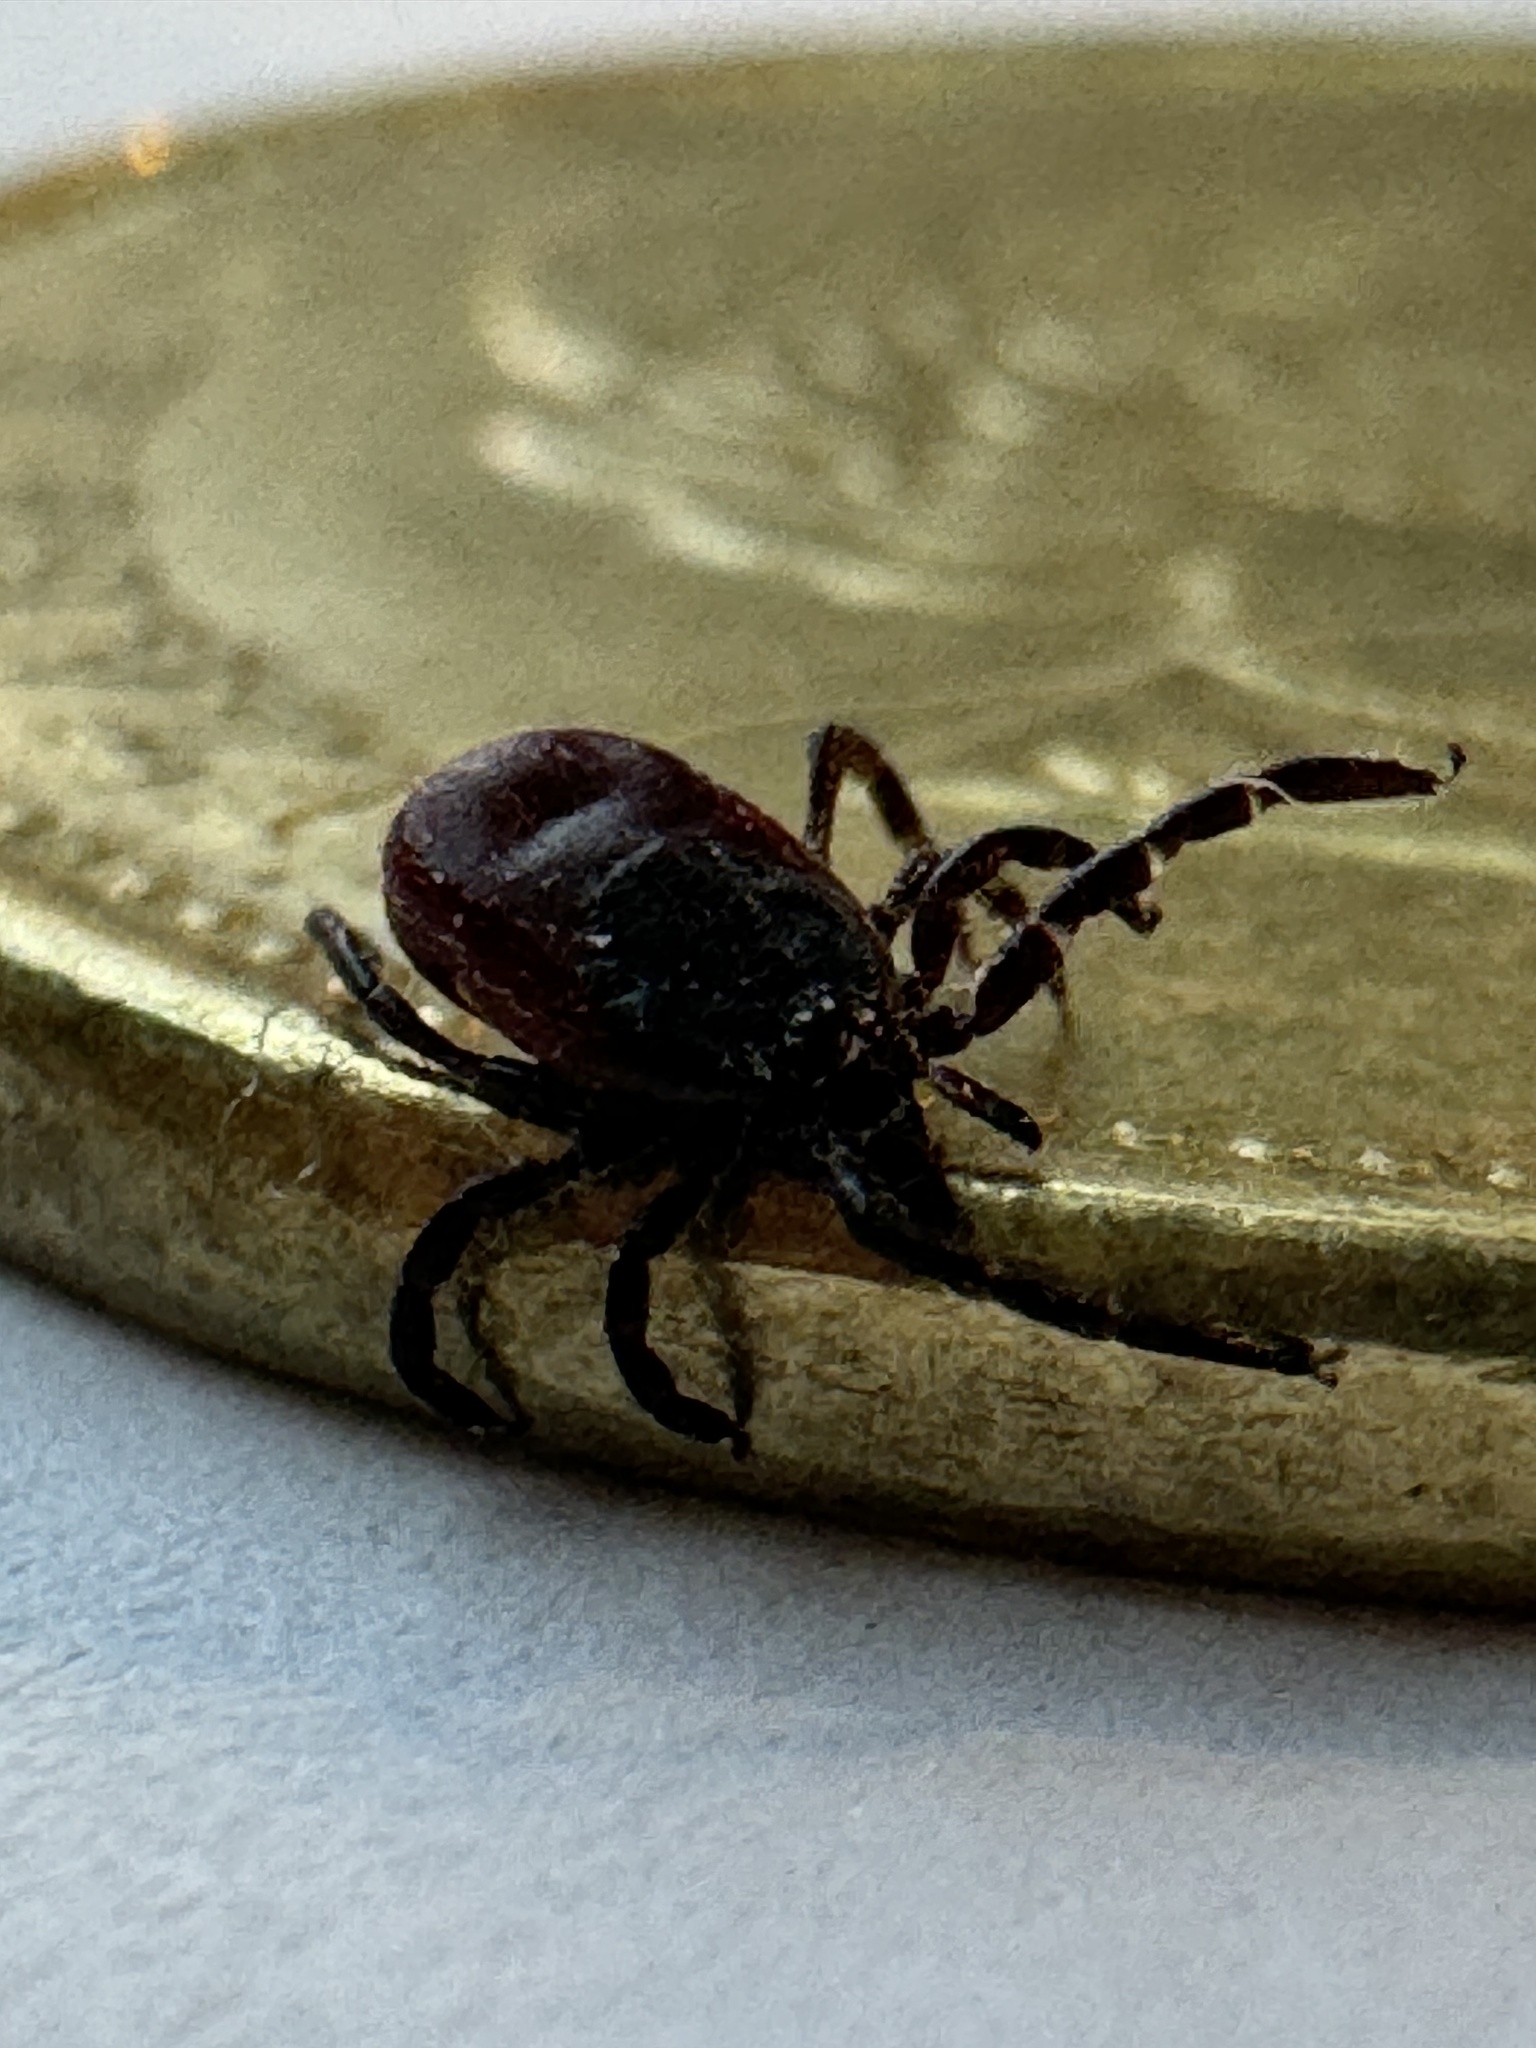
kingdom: Animalia
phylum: Arthropoda
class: Arachnida
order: Ixodida
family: Ixodidae
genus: Ixodes
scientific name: Ixodes pacificus
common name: California black-legged tick
